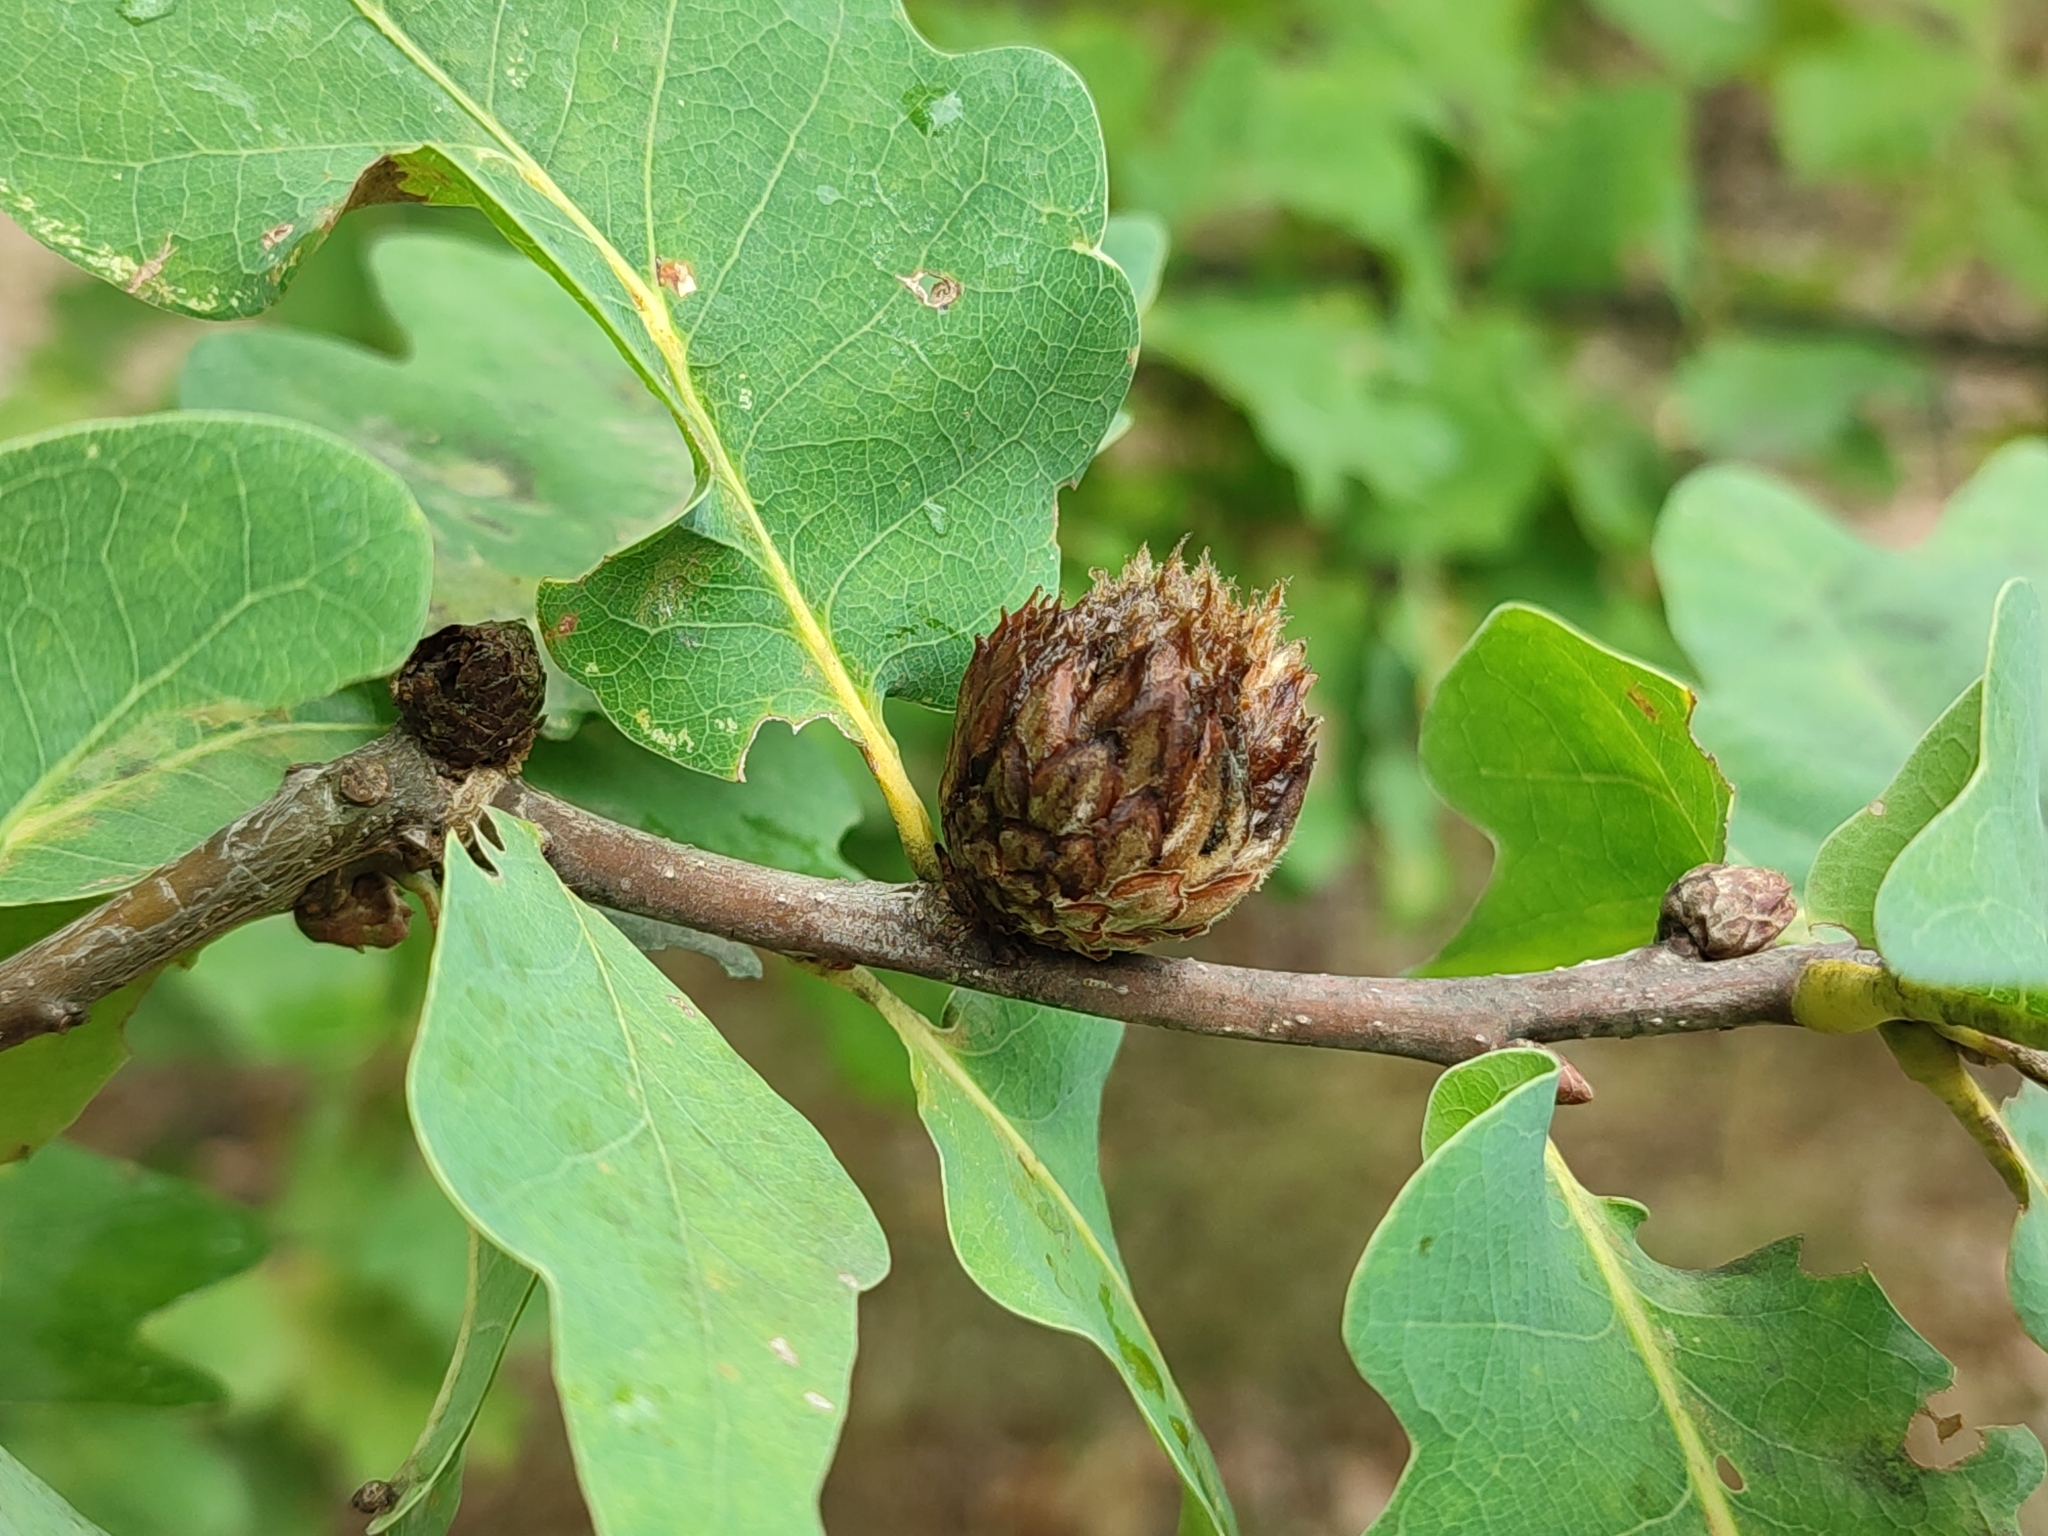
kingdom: Animalia
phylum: Arthropoda
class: Insecta
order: Hymenoptera
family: Cynipidae
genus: Andricus
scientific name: Andricus foecundatrix
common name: Artichoke gall
